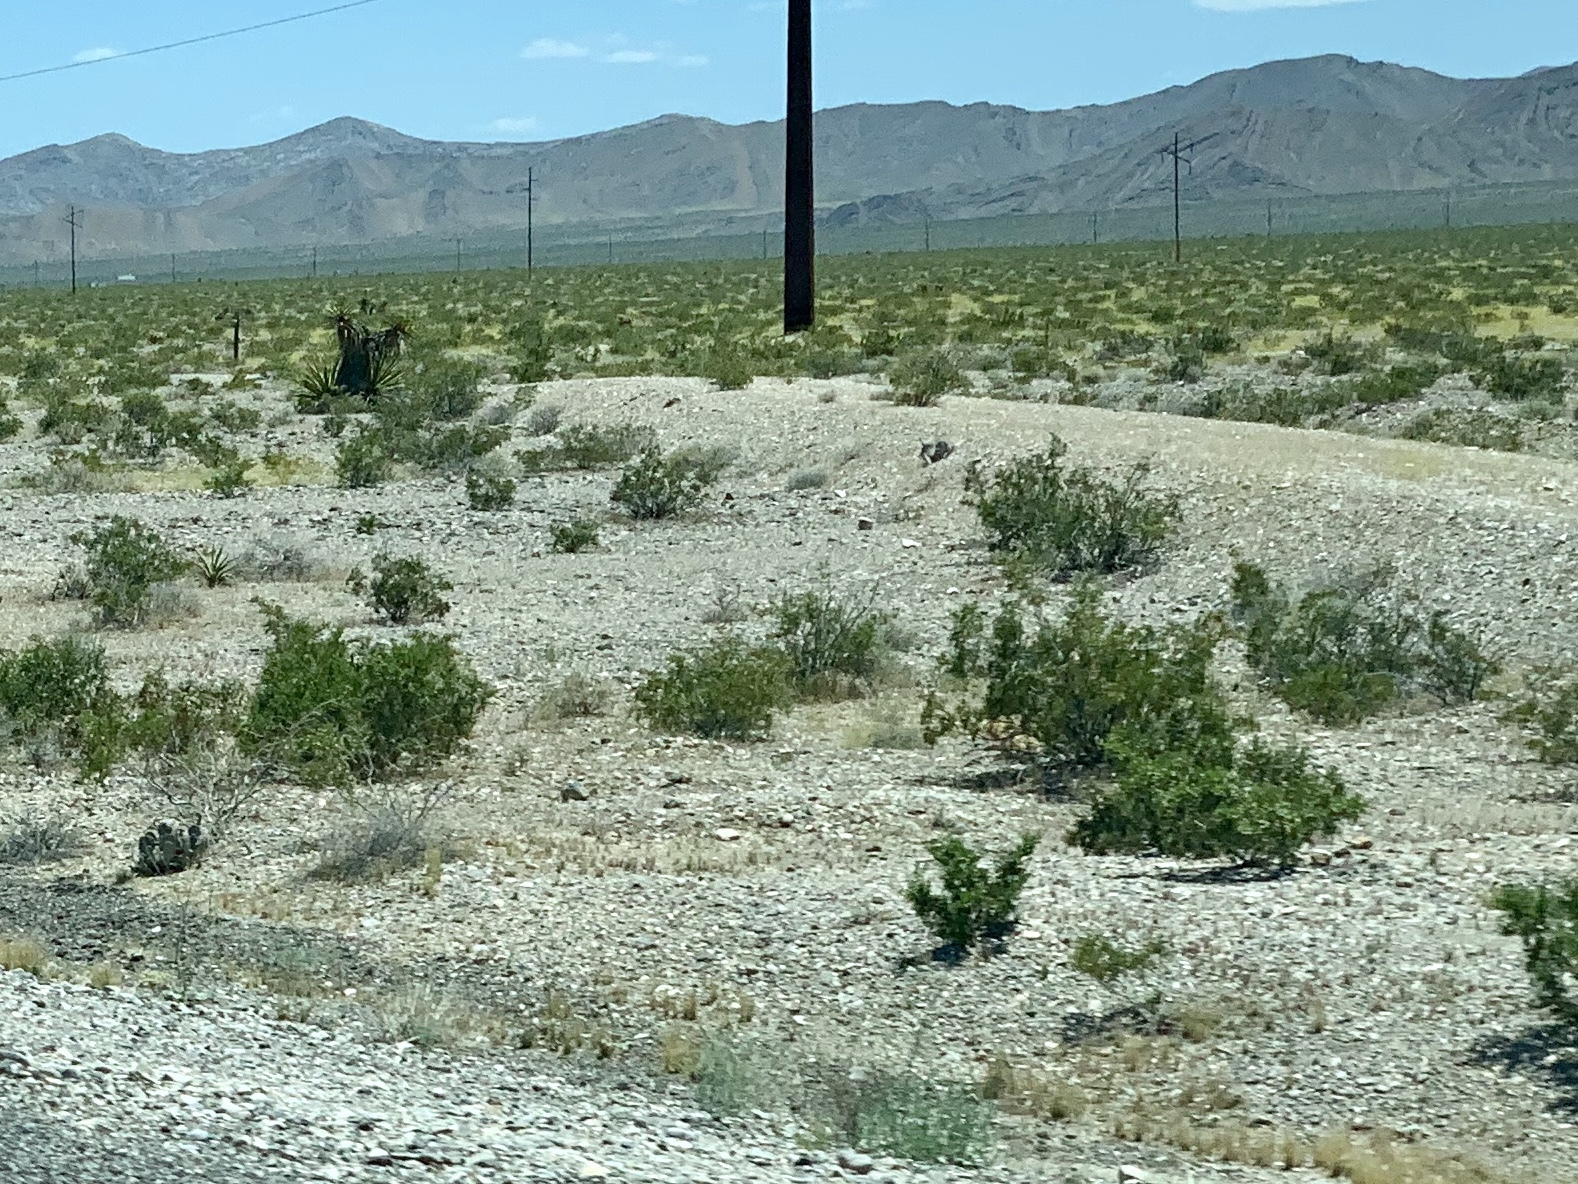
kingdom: Plantae
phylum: Tracheophyta
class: Magnoliopsida
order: Zygophyllales
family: Zygophyllaceae
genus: Larrea
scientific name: Larrea tridentata
